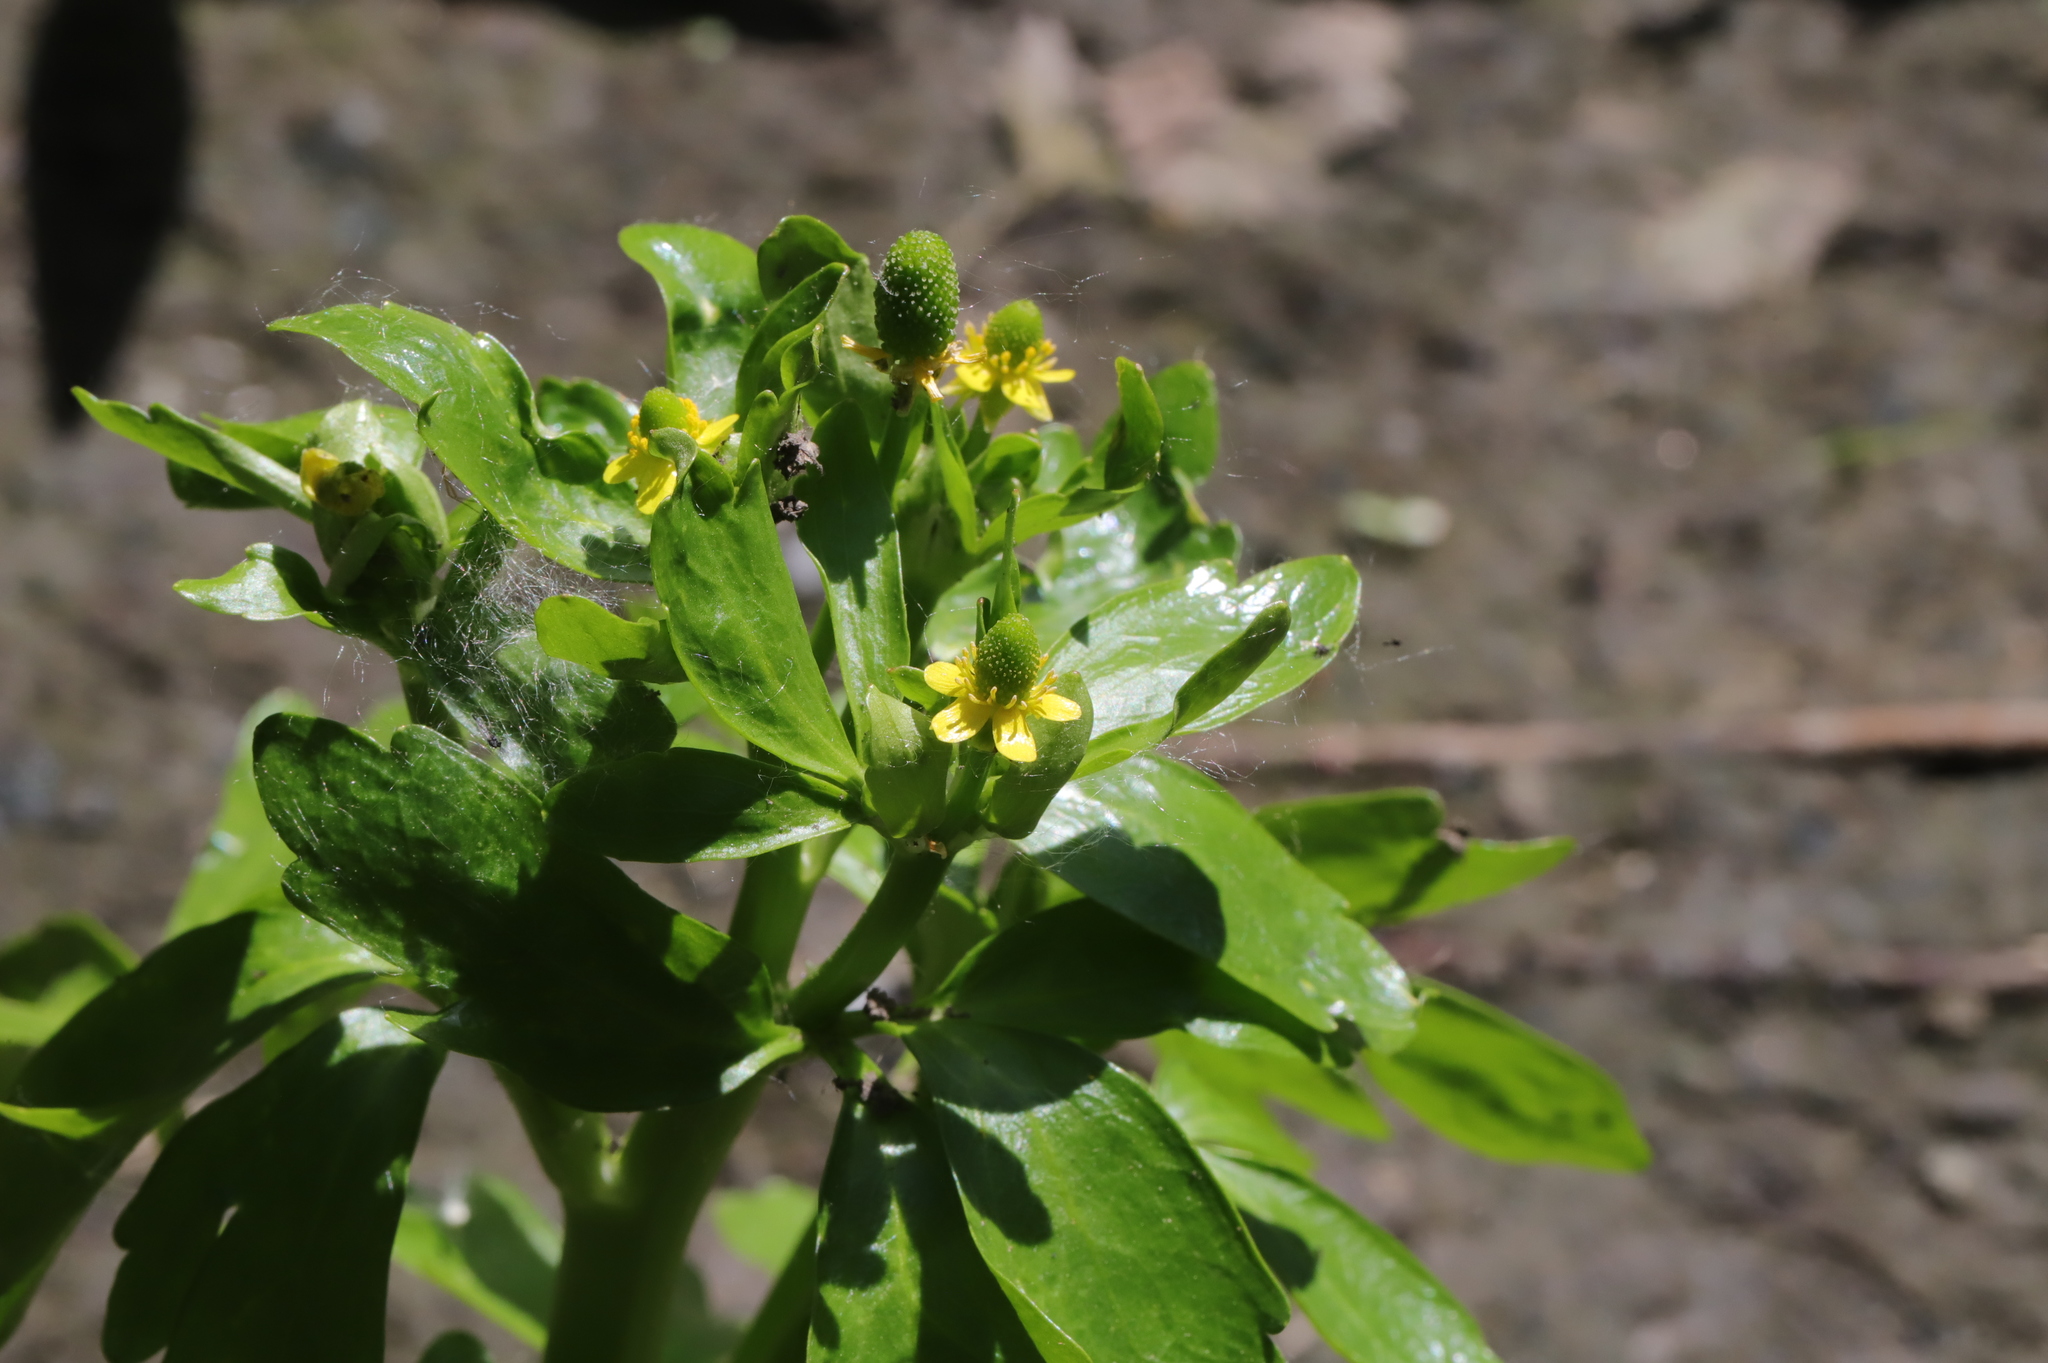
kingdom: Plantae
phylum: Tracheophyta
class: Magnoliopsida
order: Ranunculales
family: Ranunculaceae
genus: Ranunculus
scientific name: Ranunculus sceleratus
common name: Celery-leaved buttercup
